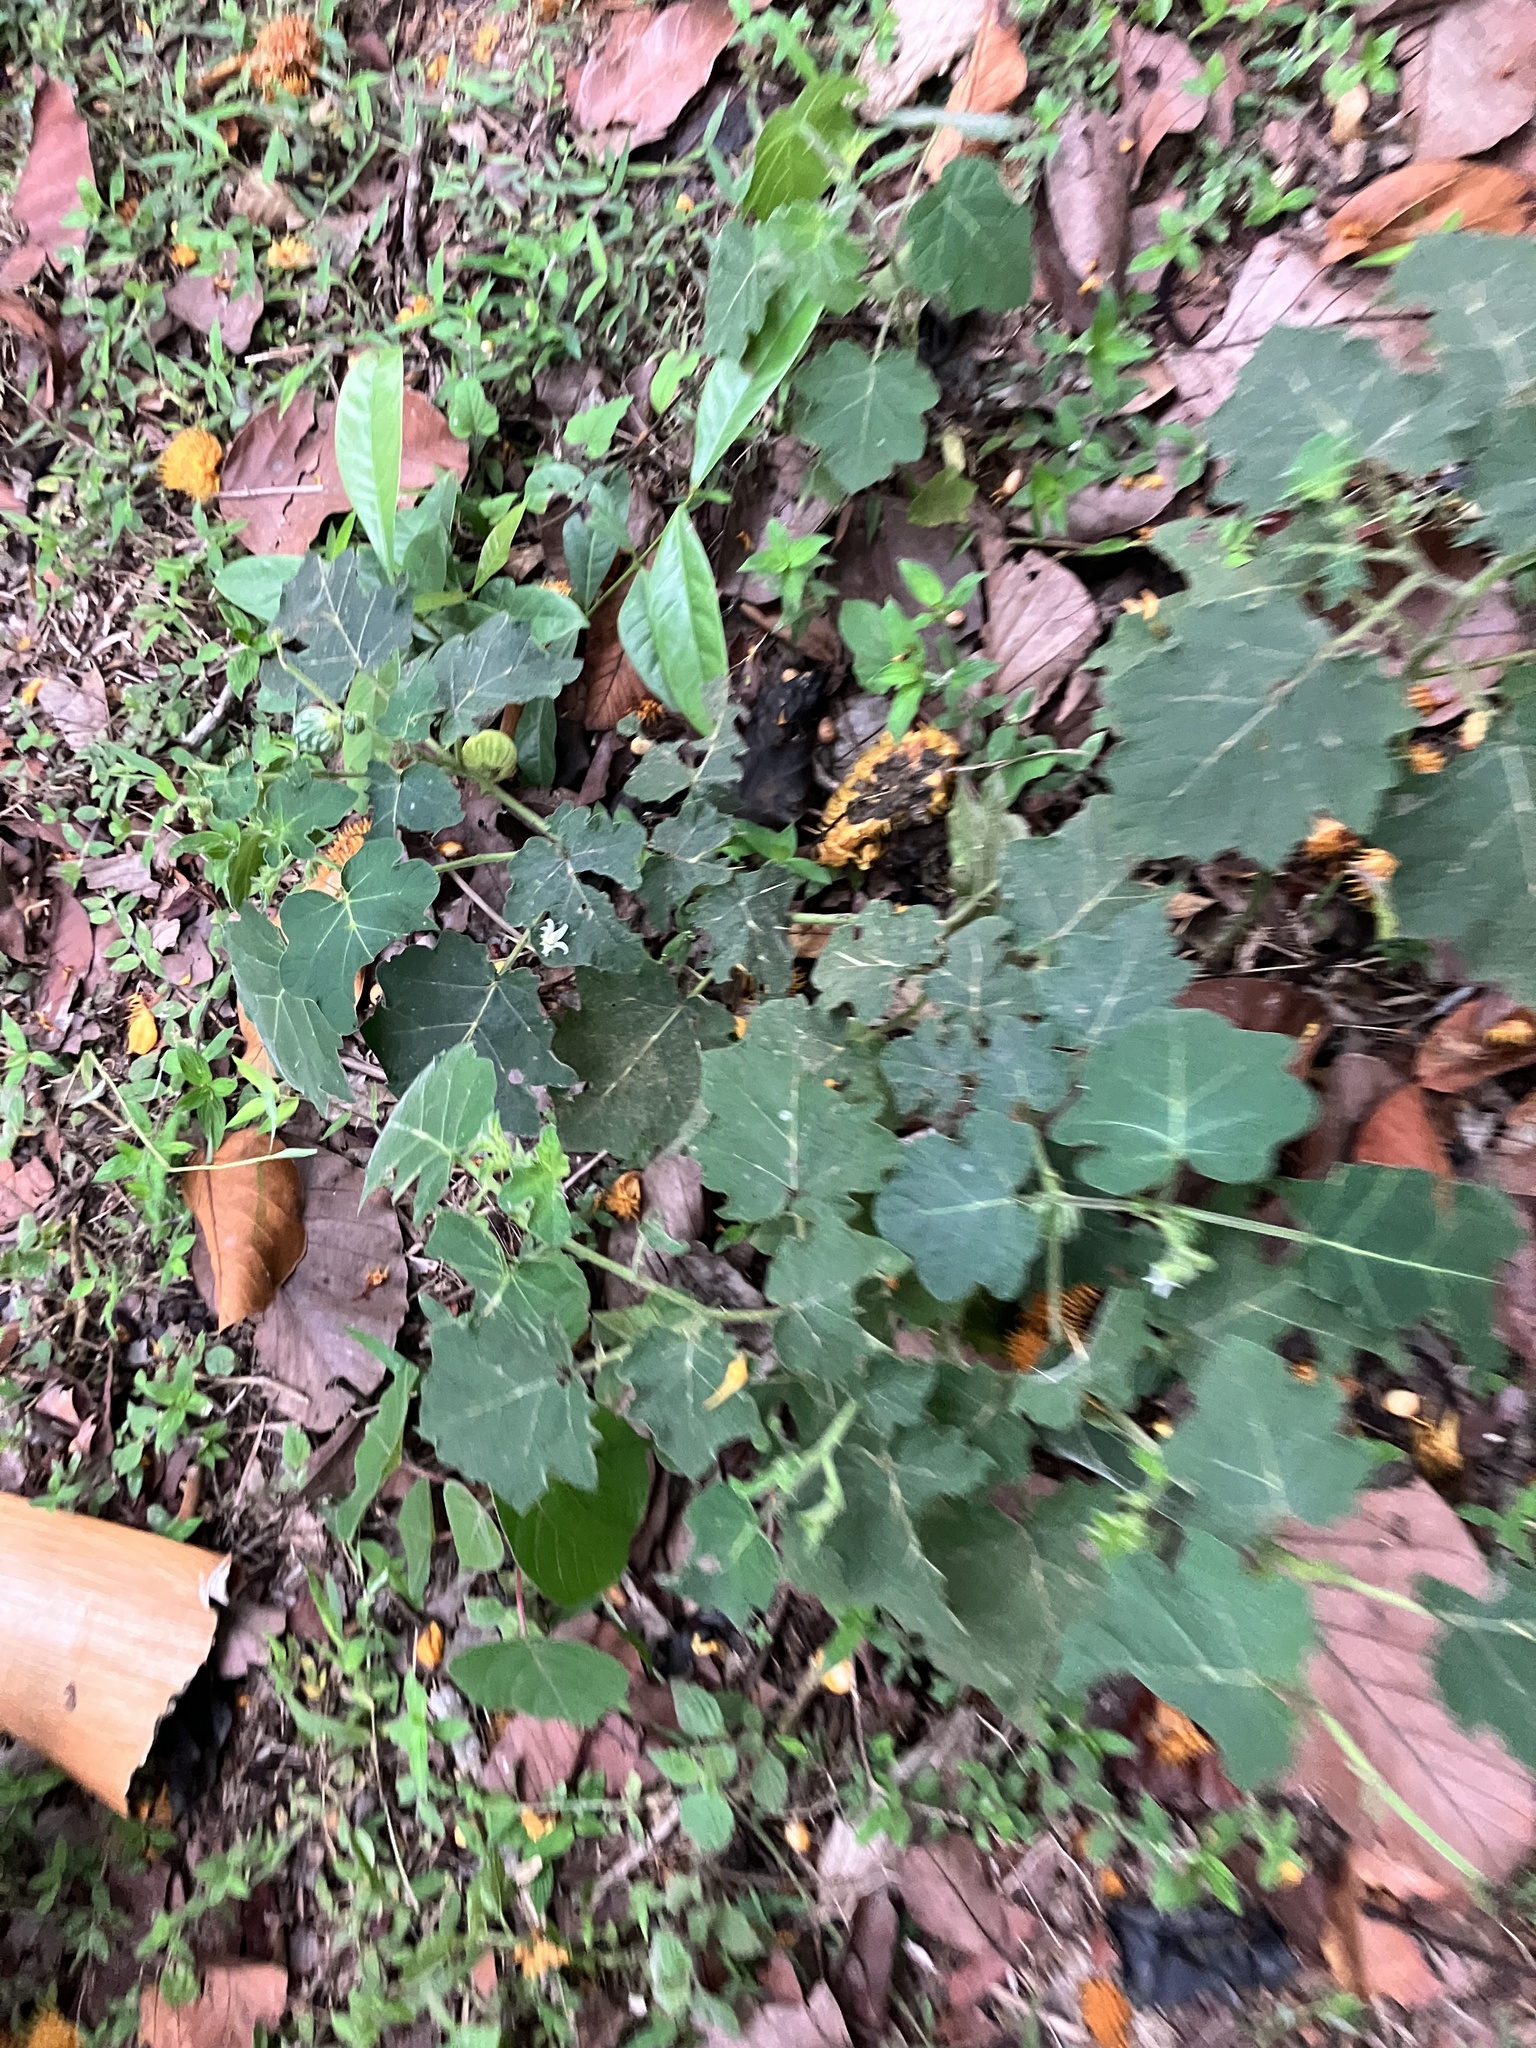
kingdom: Plantae
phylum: Tracheophyta
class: Magnoliopsida
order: Solanales
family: Solanaceae
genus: Solanum
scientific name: Solanum viarum
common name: Tropical soda apple
